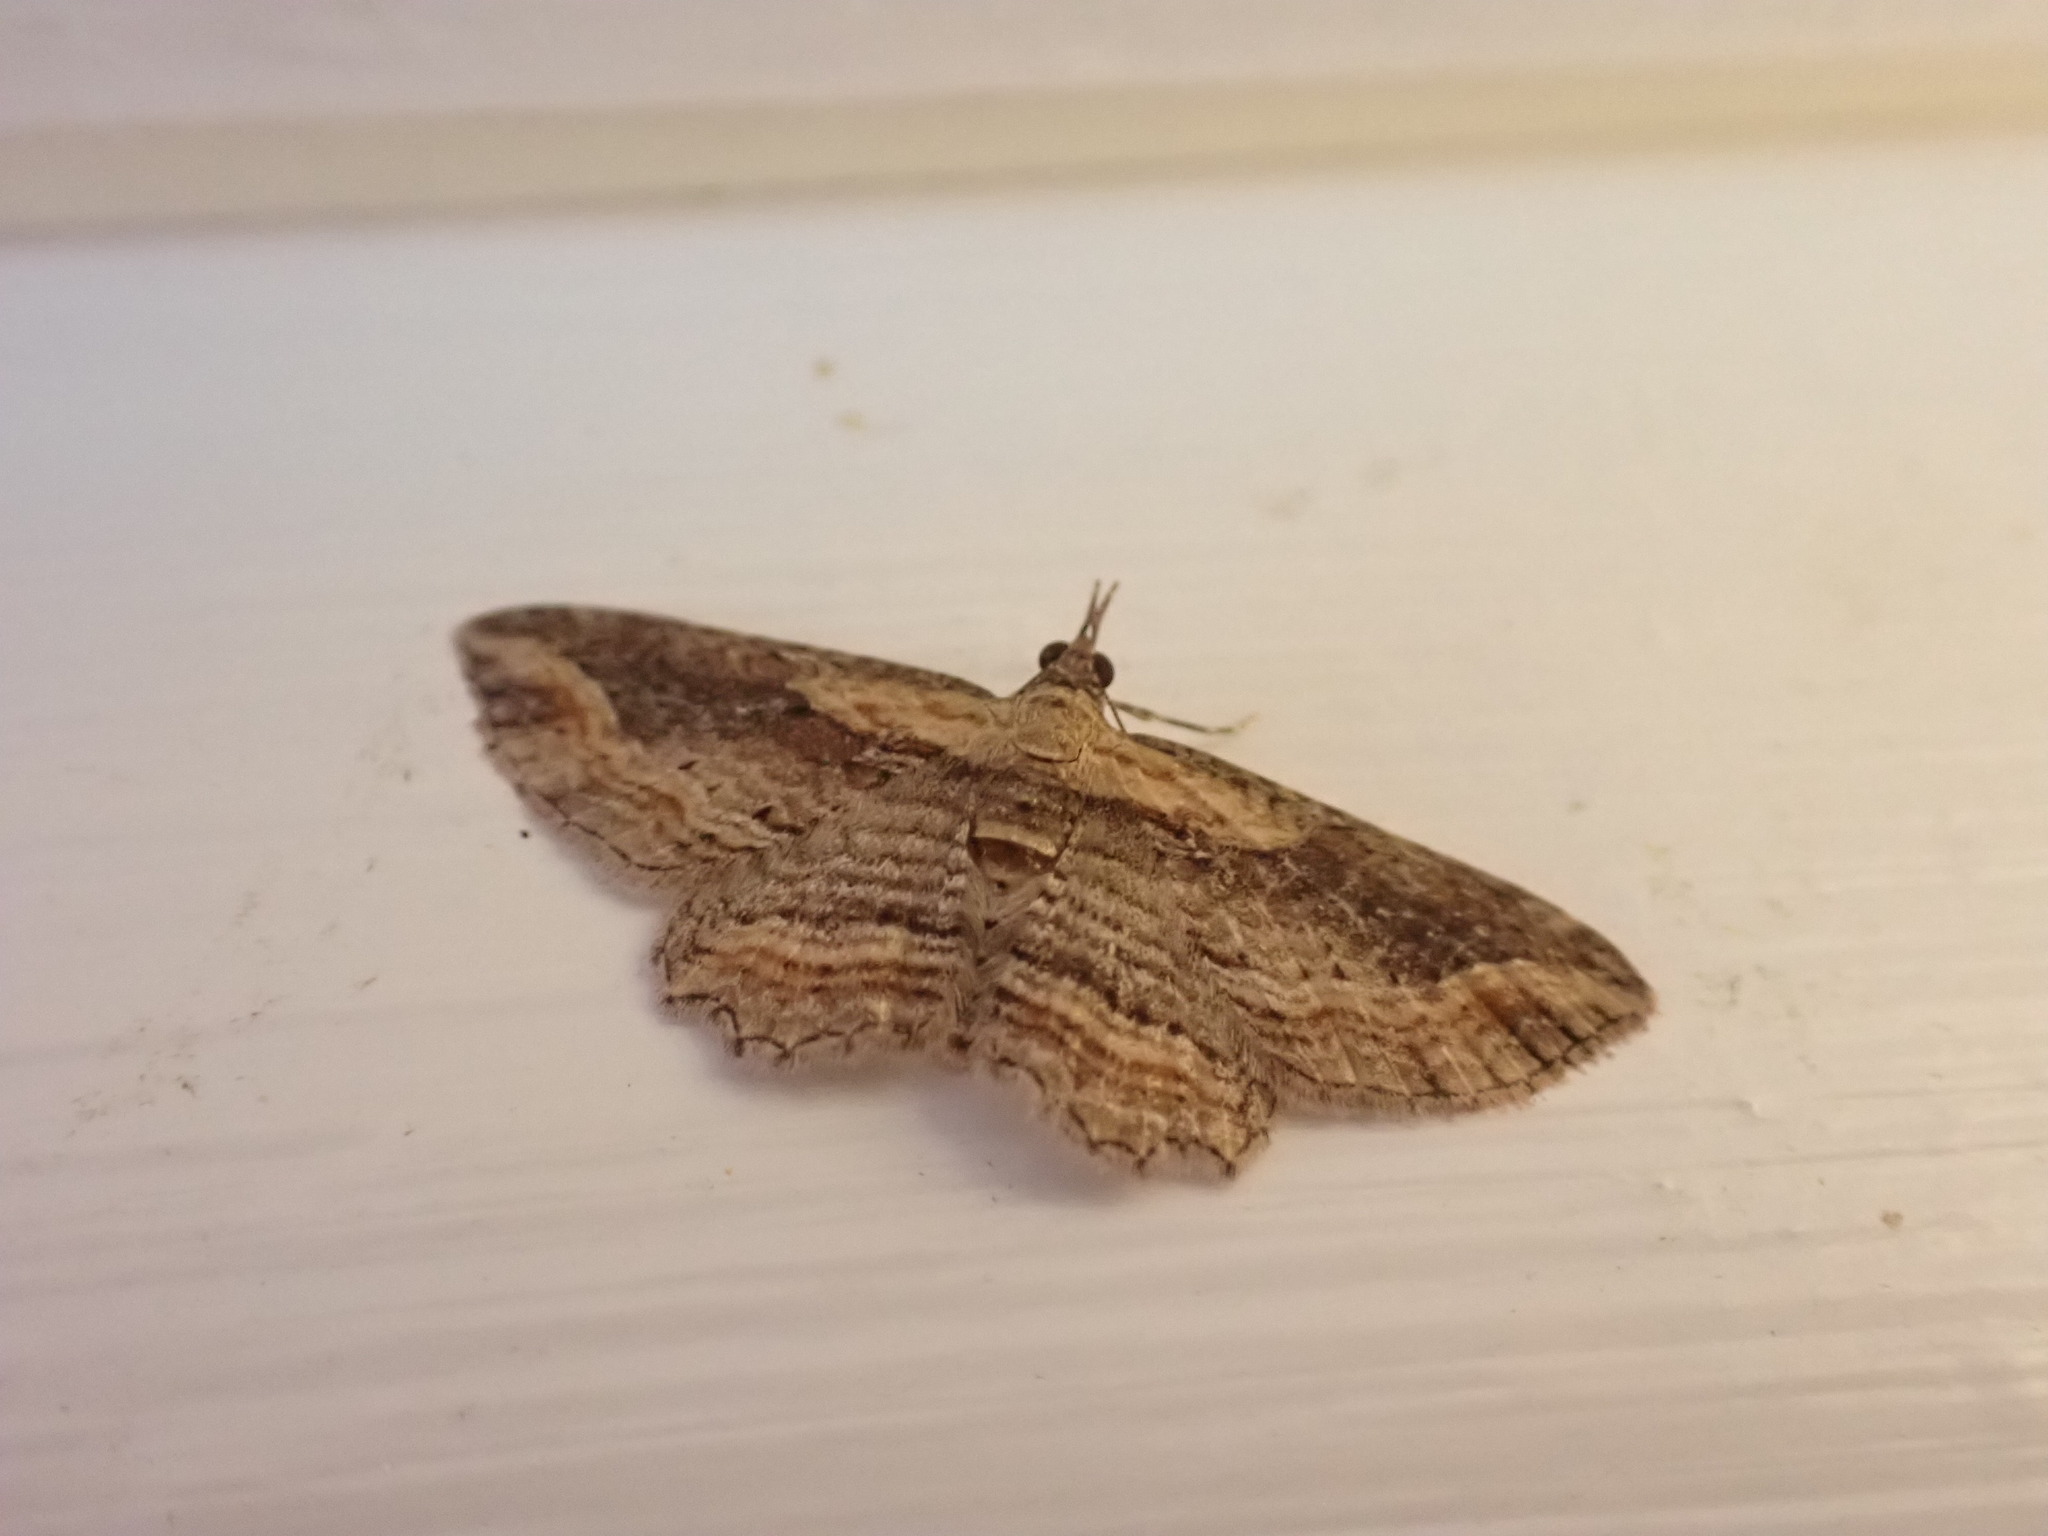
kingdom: Animalia
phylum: Arthropoda
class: Insecta
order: Lepidoptera
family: Geometridae
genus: Chloroclystis
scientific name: Chloroclystis filata
